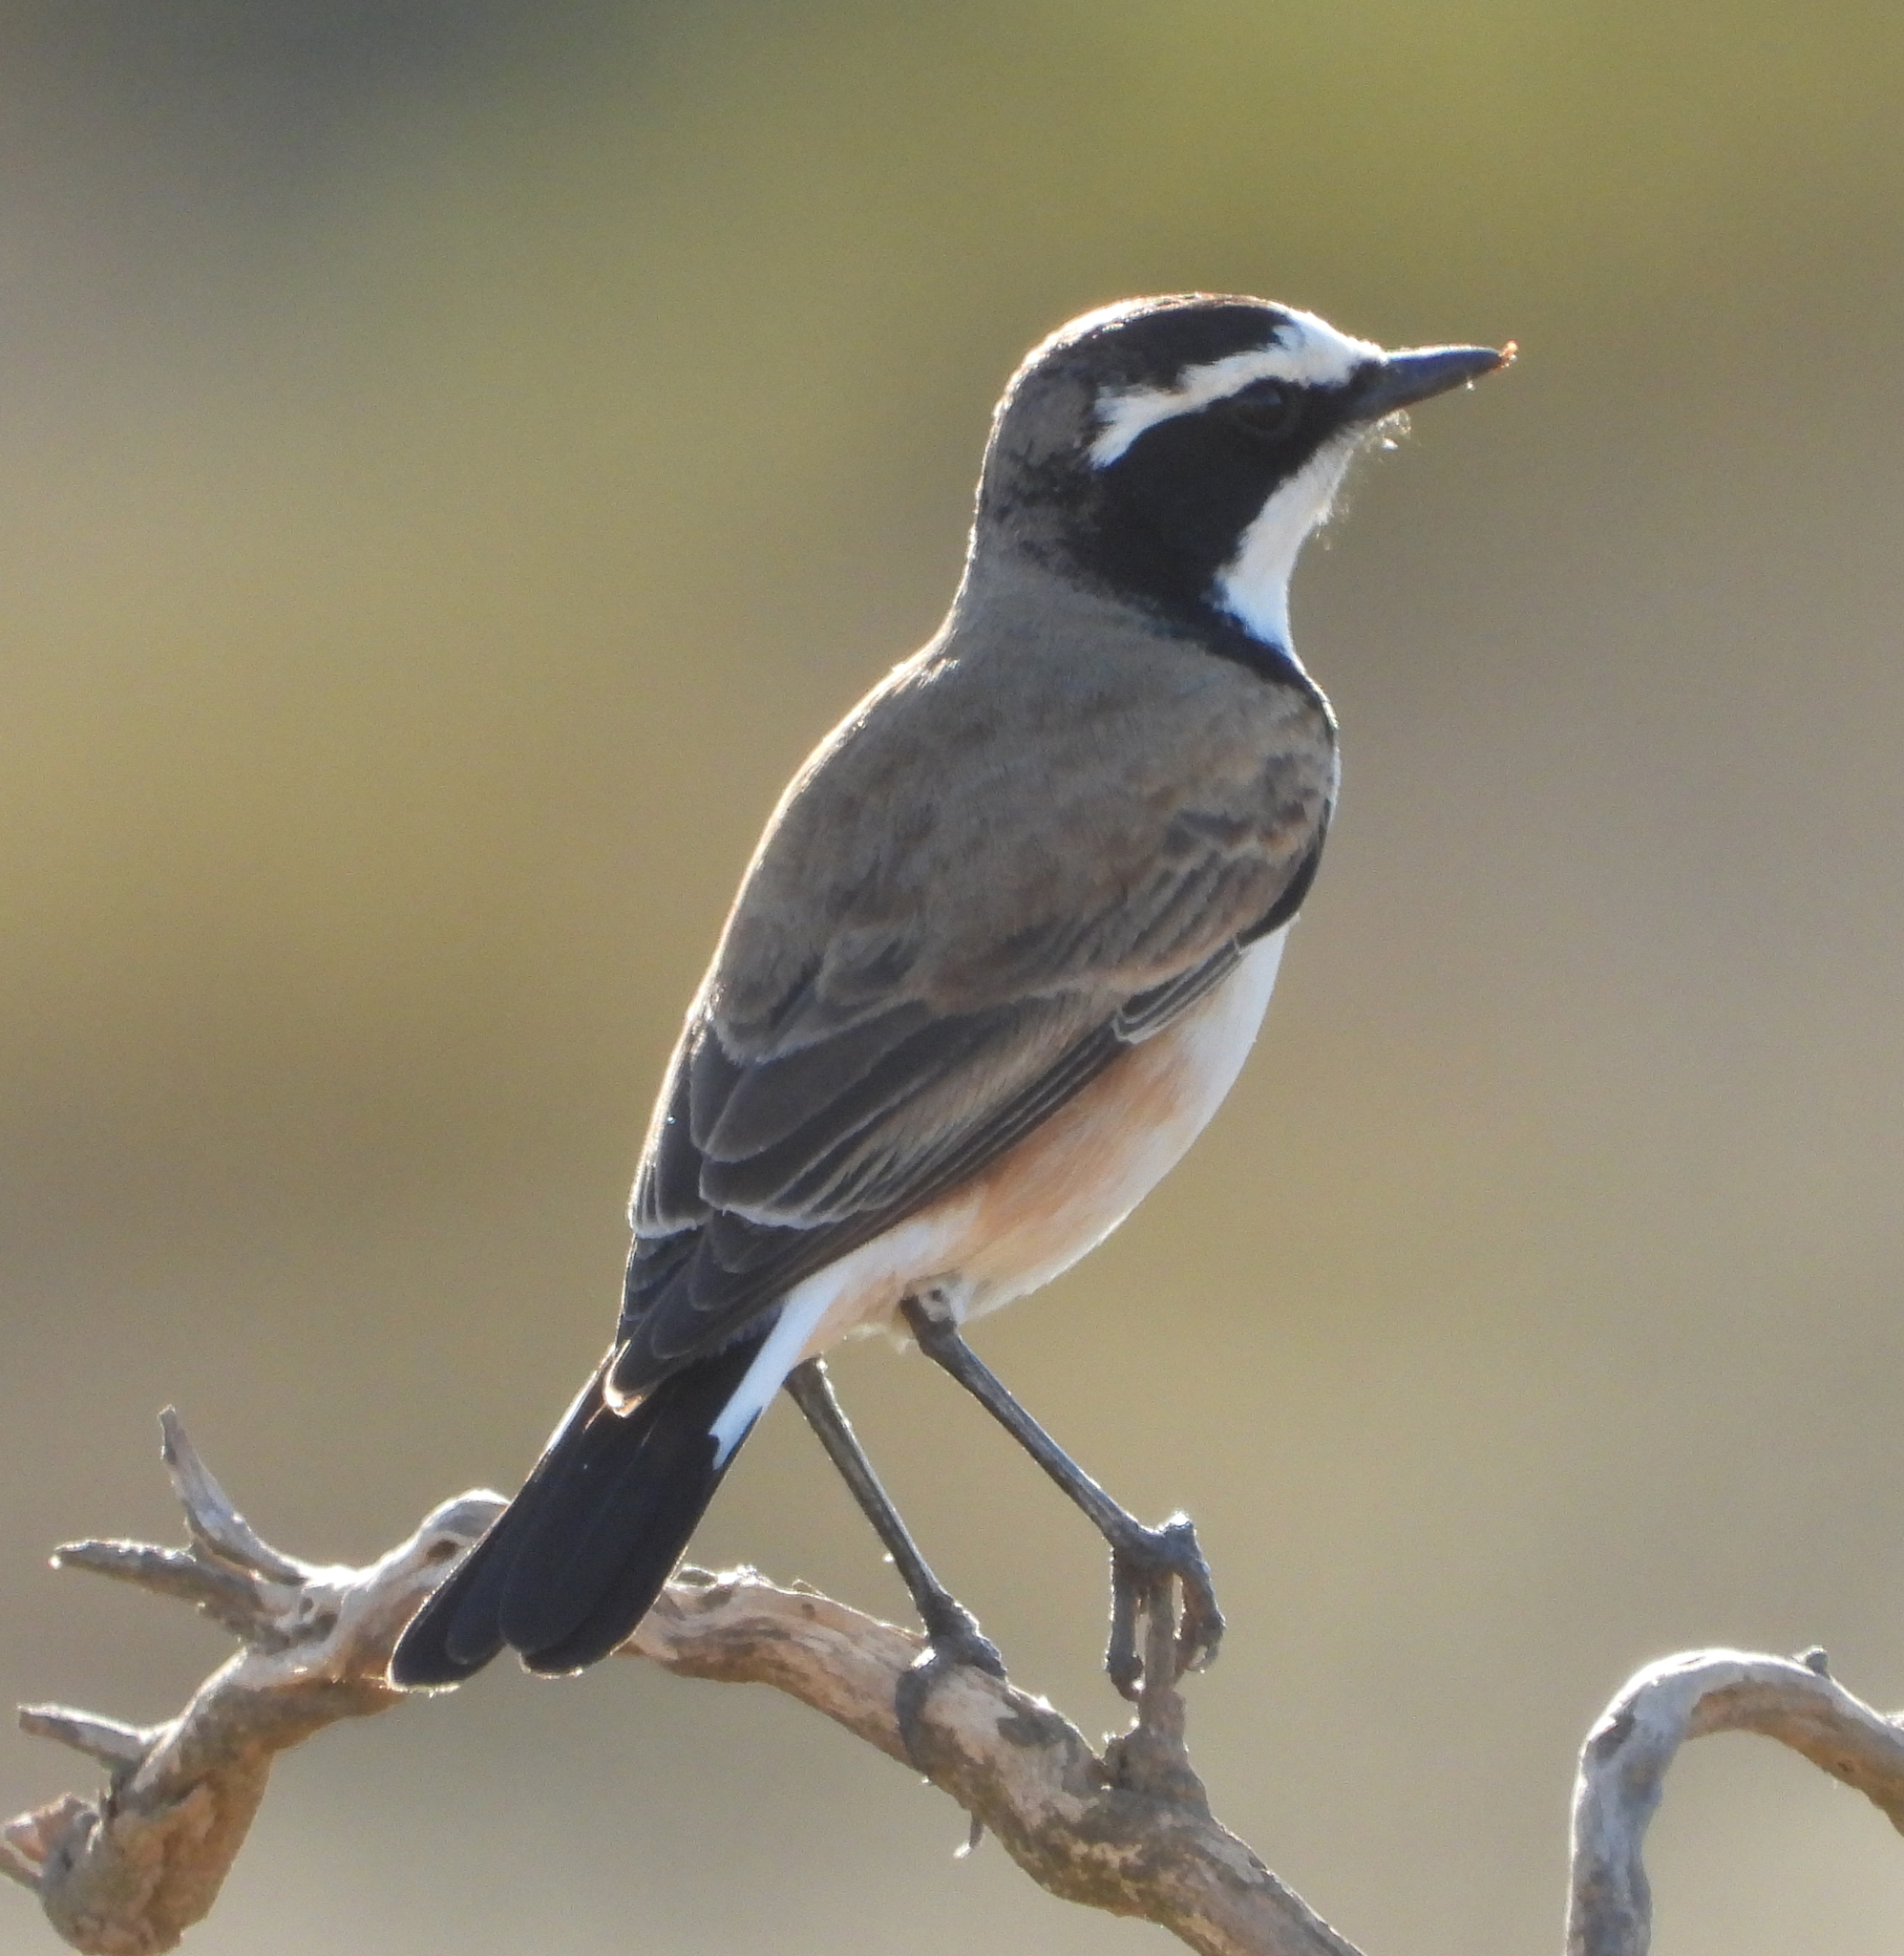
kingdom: Animalia
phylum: Chordata
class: Aves
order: Passeriformes
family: Muscicapidae
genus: Oenanthe
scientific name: Oenanthe pileata
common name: Capped wheatear
